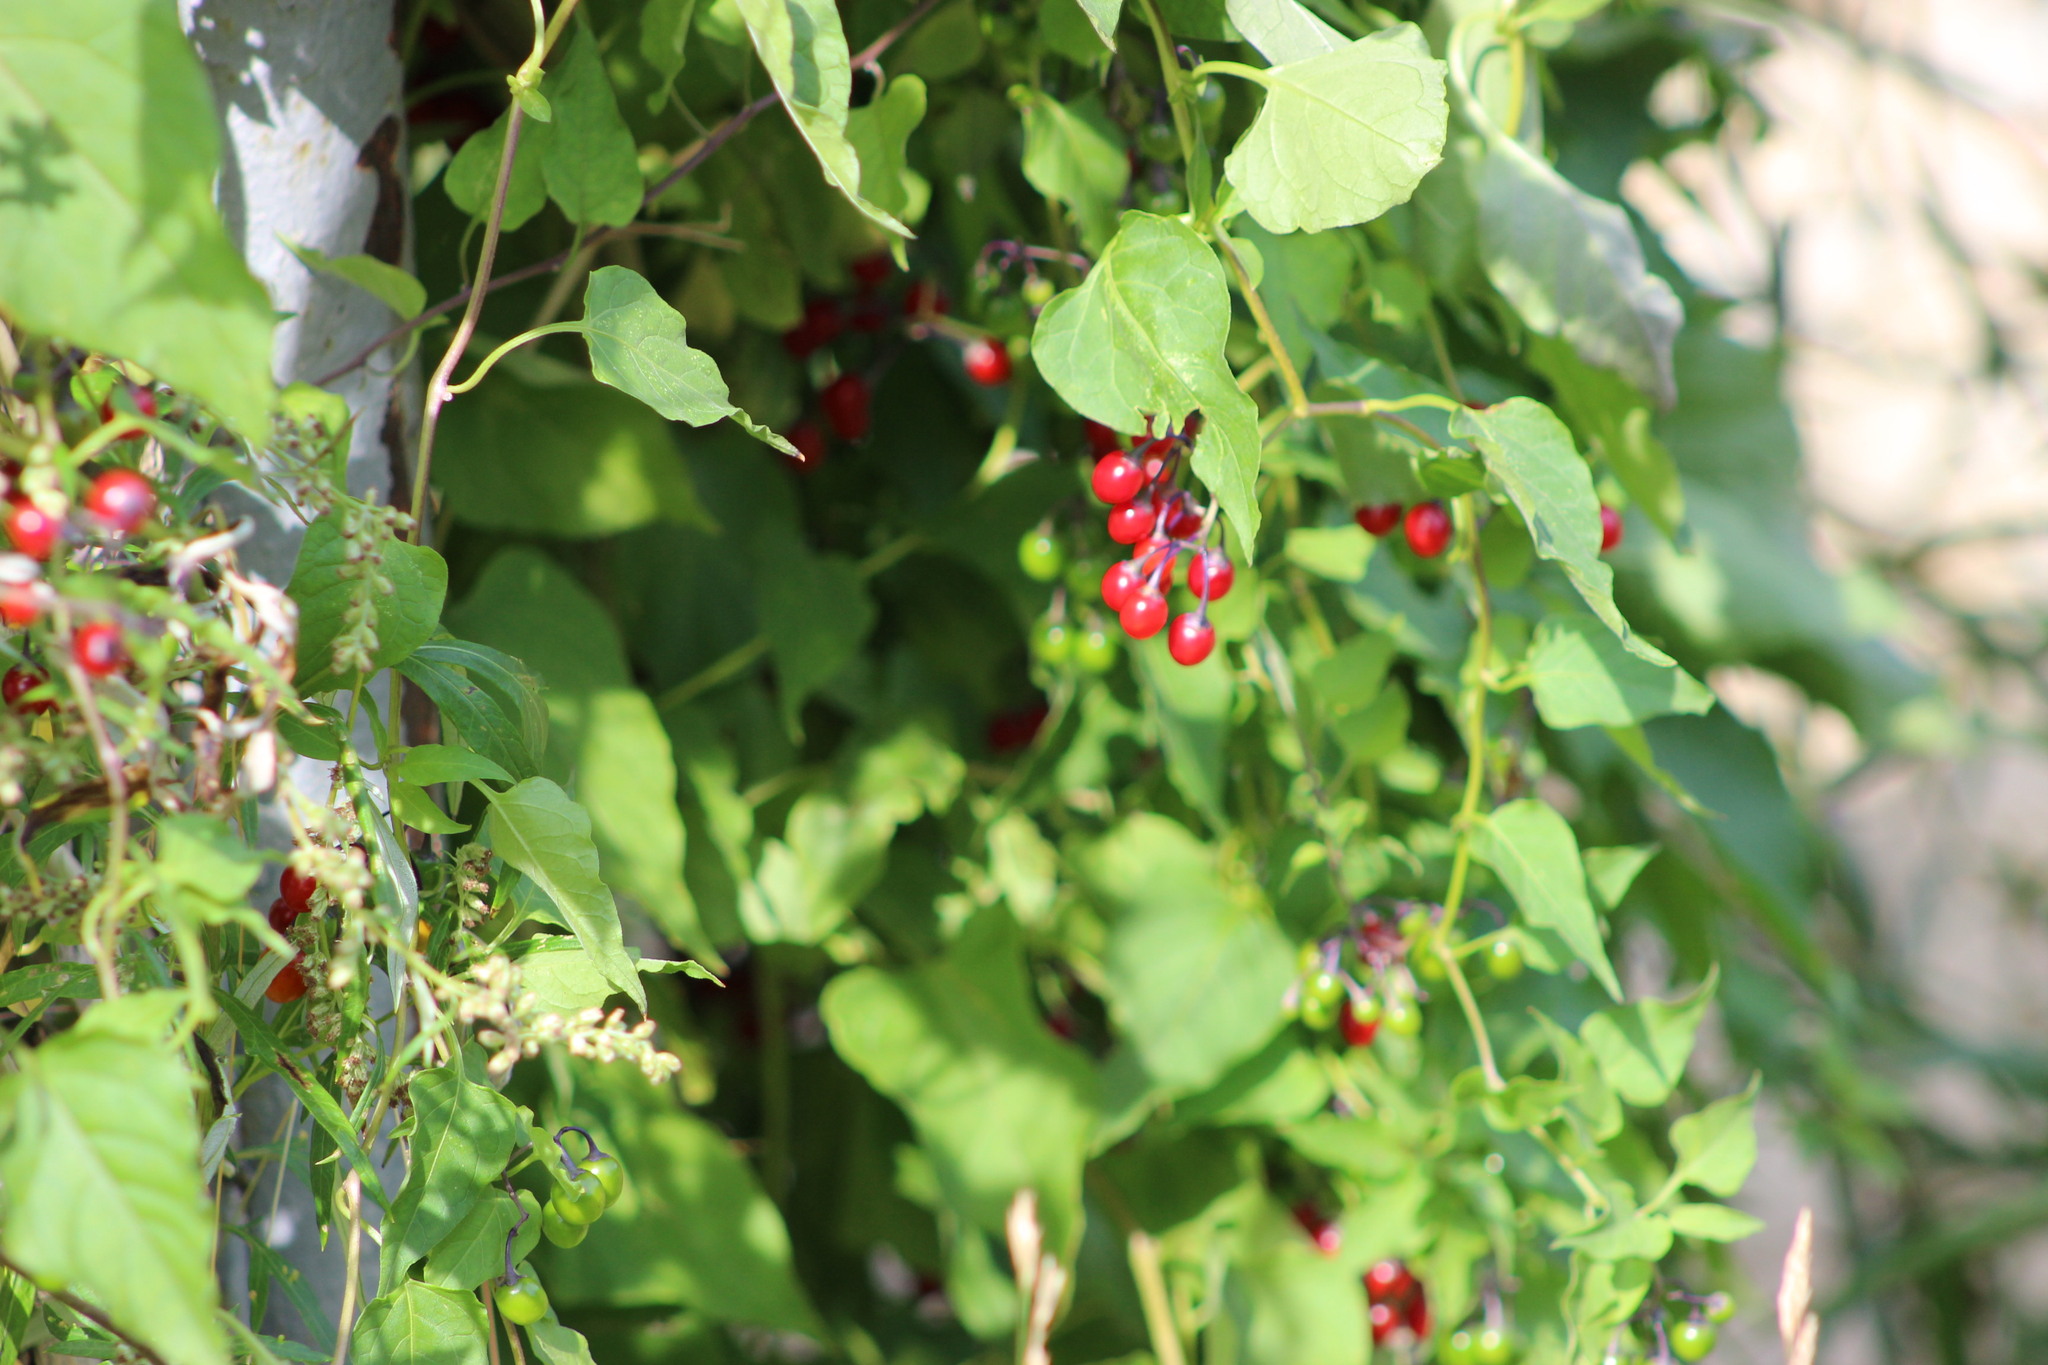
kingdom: Plantae
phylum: Tracheophyta
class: Magnoliopsida
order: Solanales
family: Solanaceae
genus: Solanum
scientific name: Solanum dulcamara
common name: Climbing nightshade
